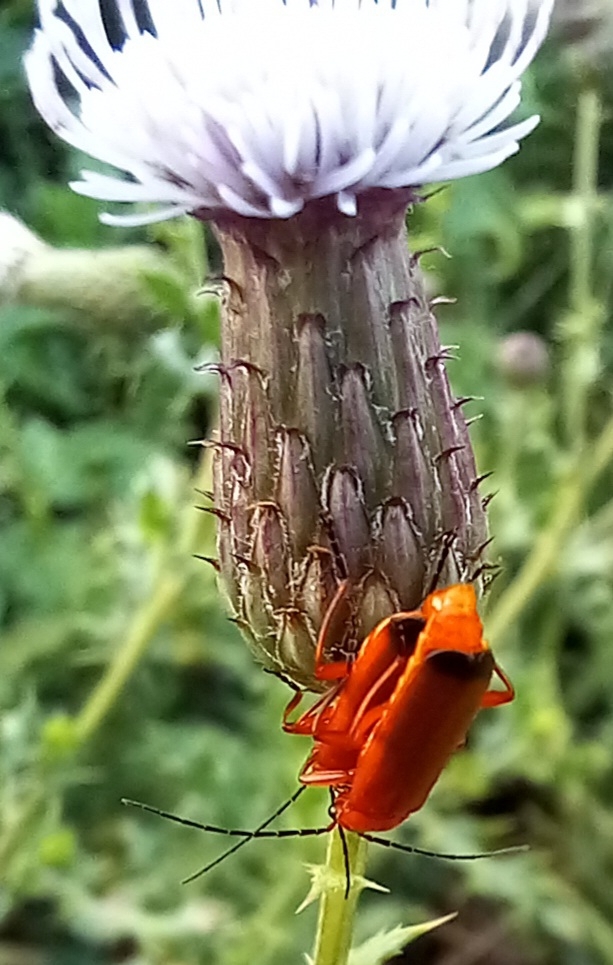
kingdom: Animalia
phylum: Arthropoda
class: Insecta
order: Coleoptera
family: Cantharidae
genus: Rhagonycha
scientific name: Rhagonycha fulva
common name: Common red soldier beetle
